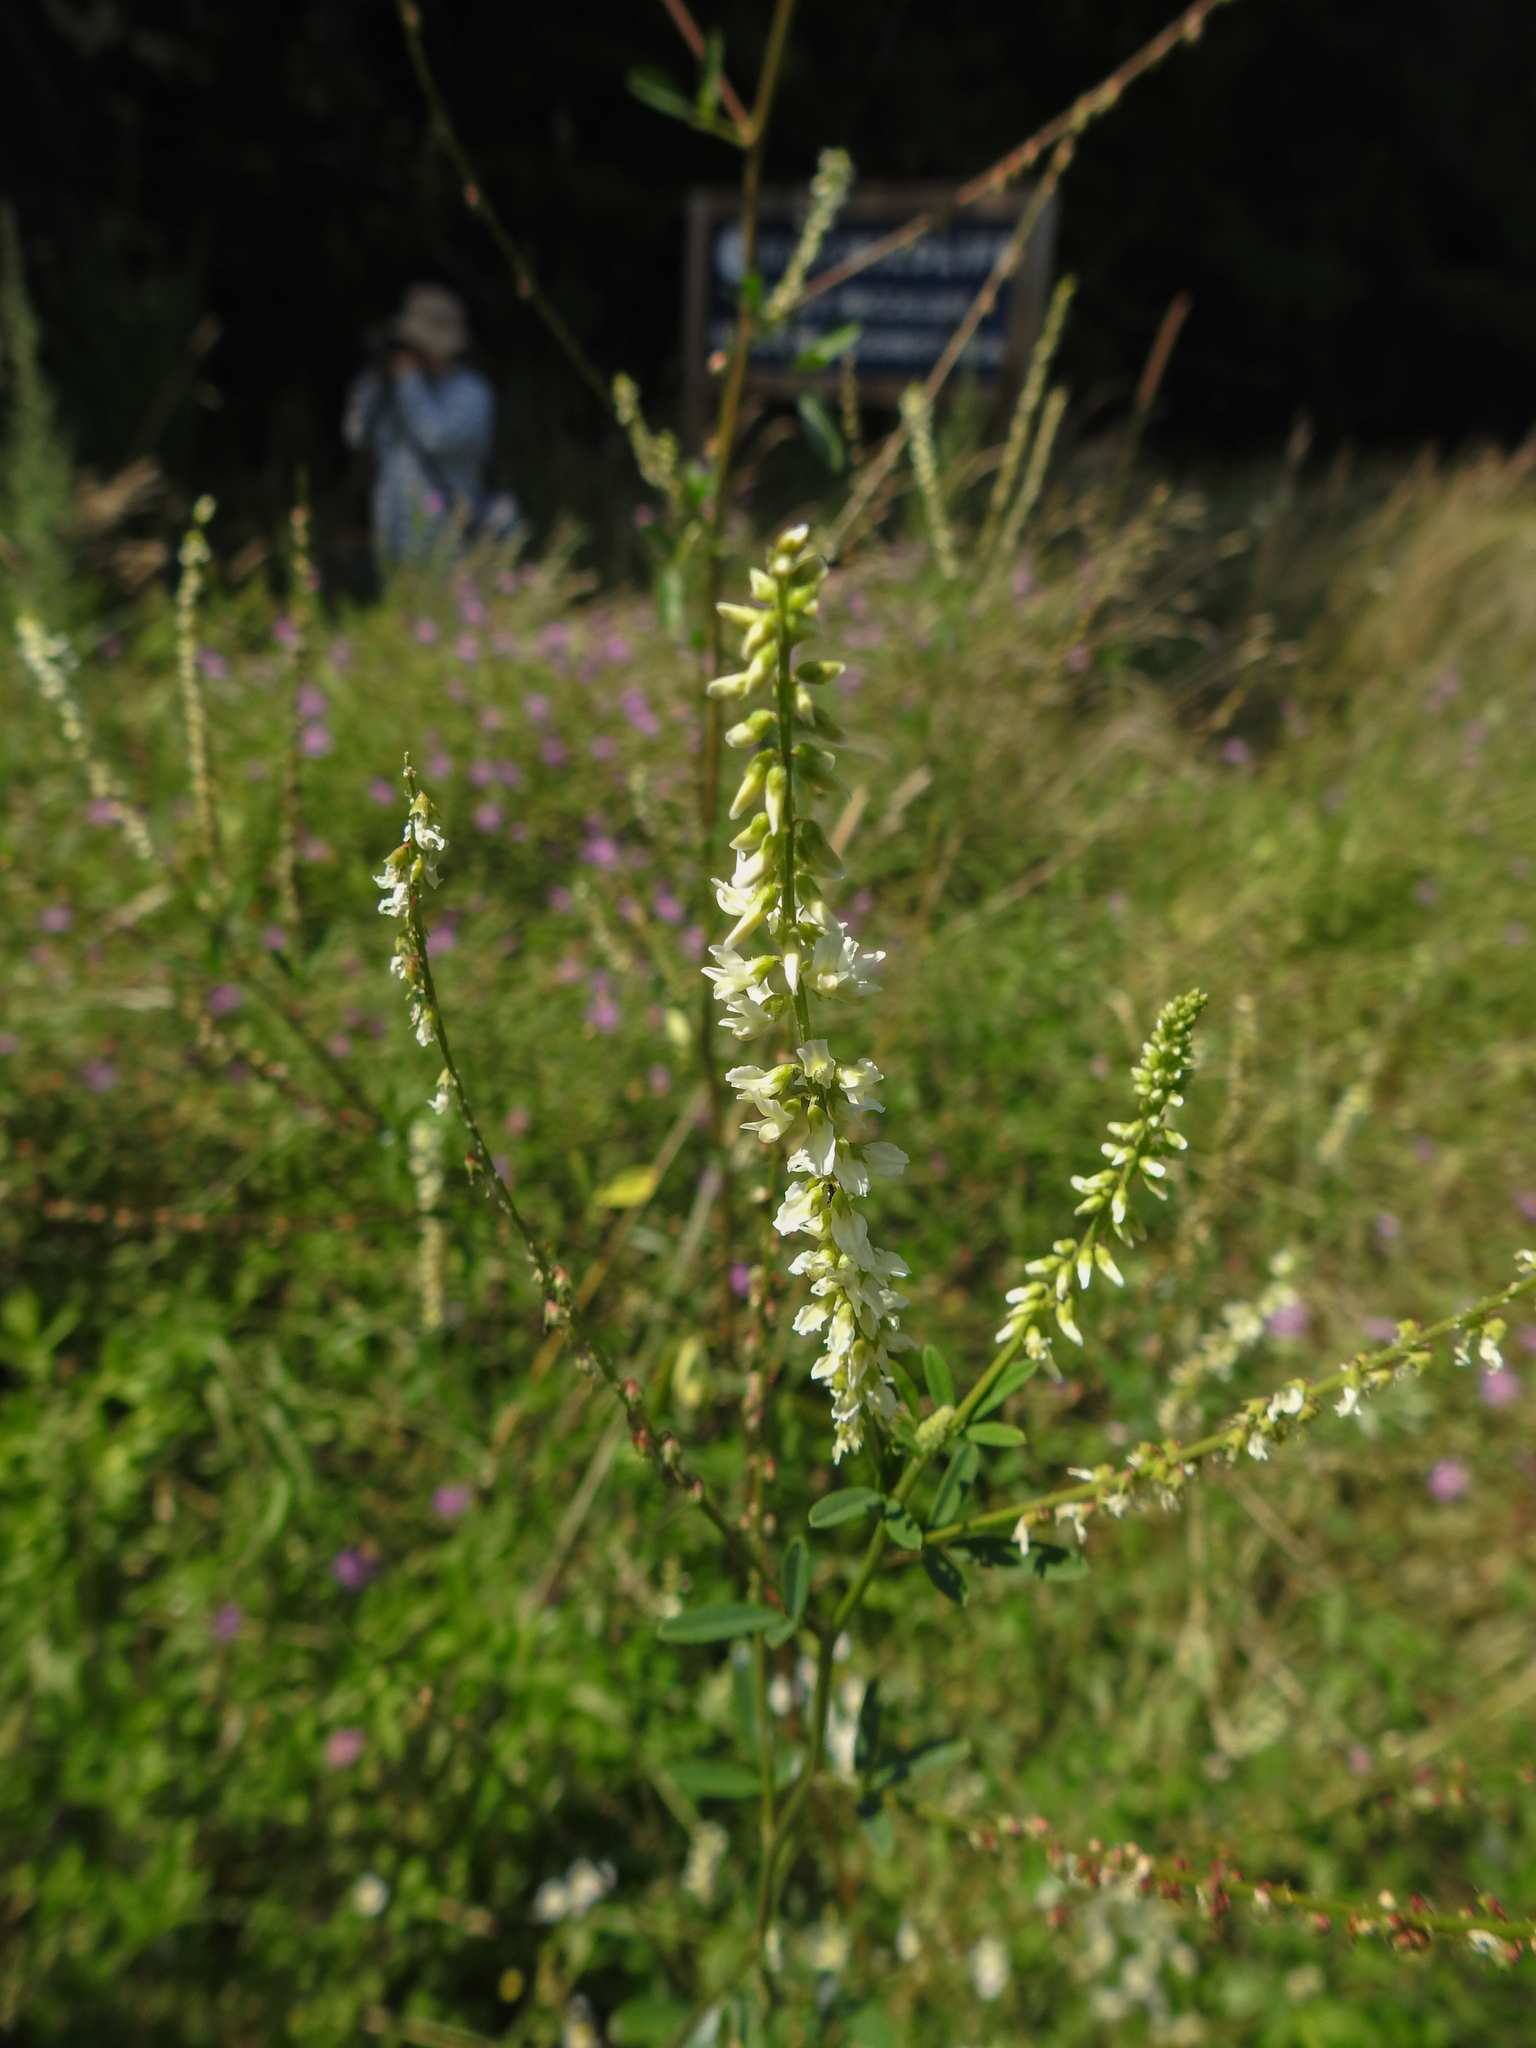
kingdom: Plantae
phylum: Tracheophyta
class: Magnoliopsida
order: Fabales
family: Fabaceae
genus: Melilotus
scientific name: Melilotus albus
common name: White melilot
